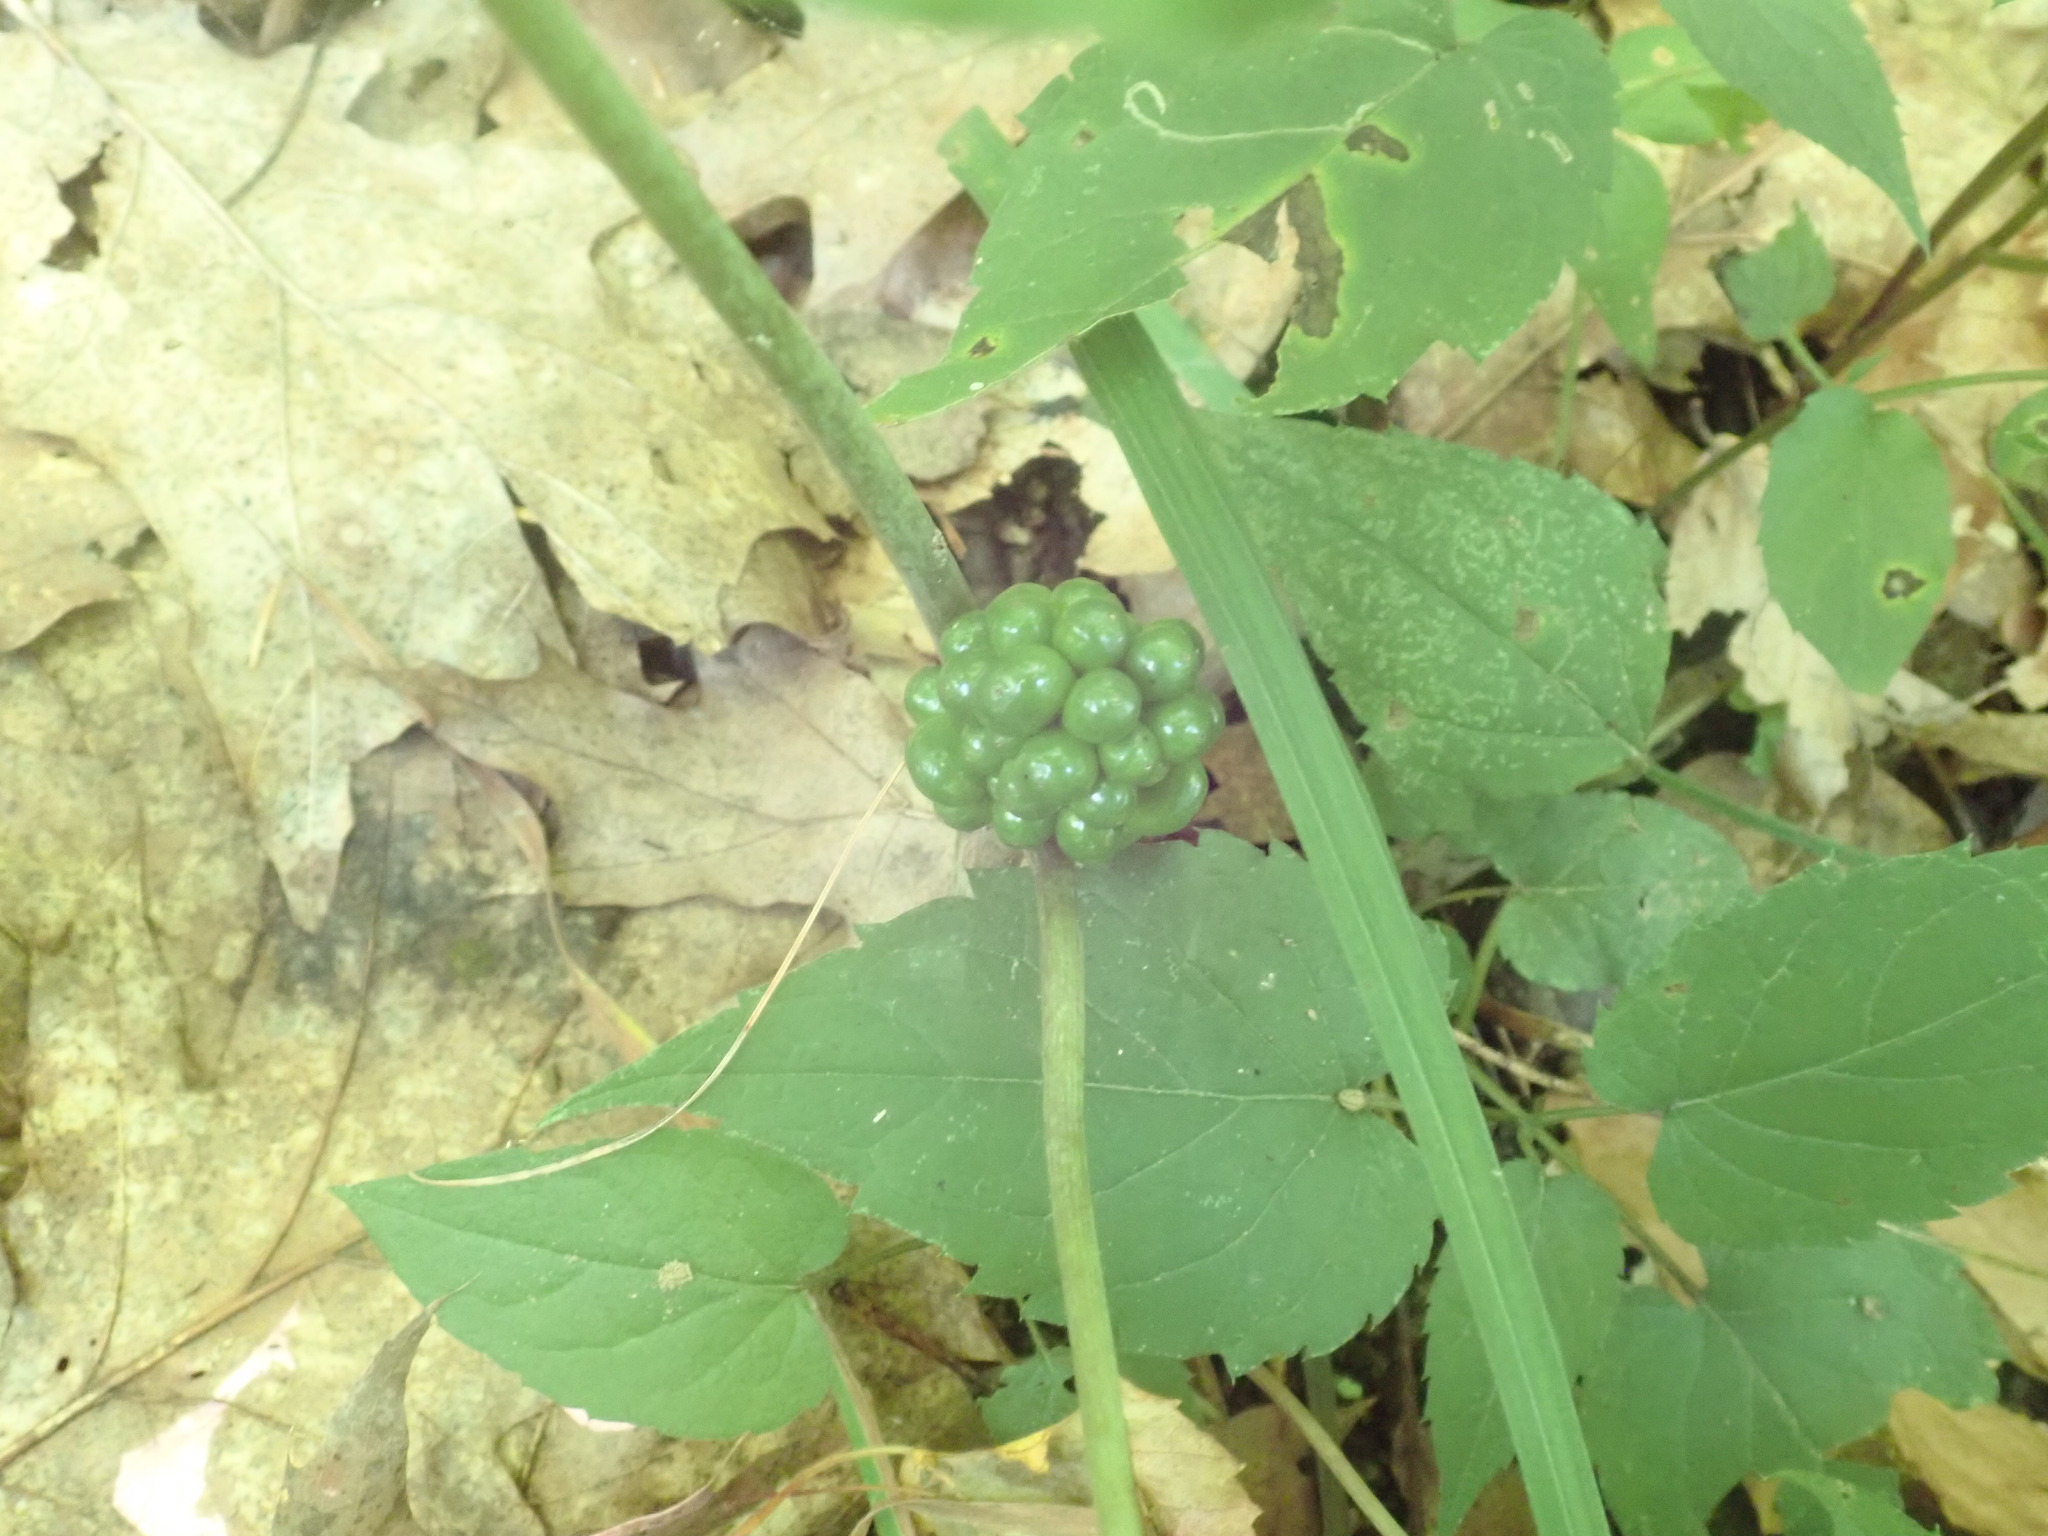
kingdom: Plantae
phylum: Tracheophyta
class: Liliopsida
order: Alismatales
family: Araceae
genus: Arisaema
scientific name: Arisaema triphyllum
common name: Jack-in-the-pulpit
